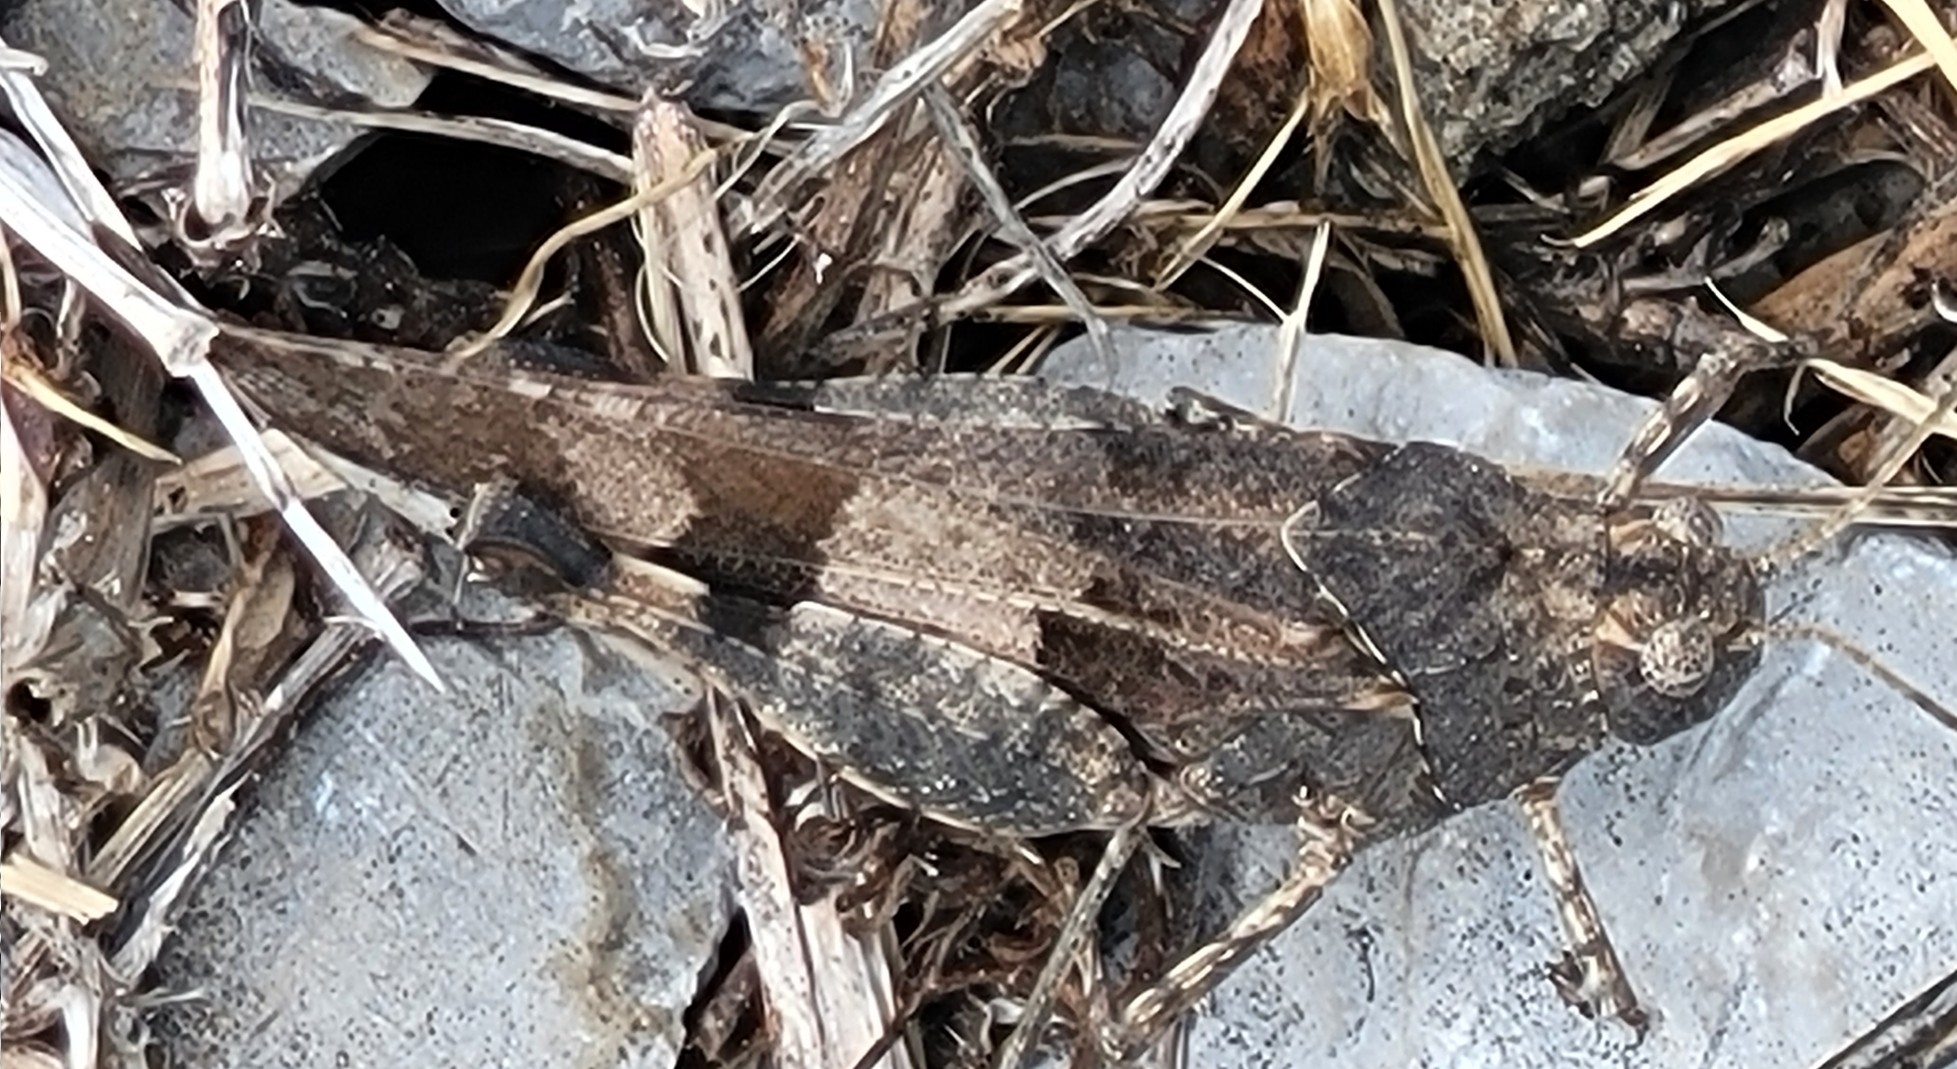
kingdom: Animalia
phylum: Arthropoda
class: Insecta
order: Orthoptera
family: Acrididae
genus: Oedipoda
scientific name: Oedipoda caerulescens
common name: Blue-winged grasshopper
